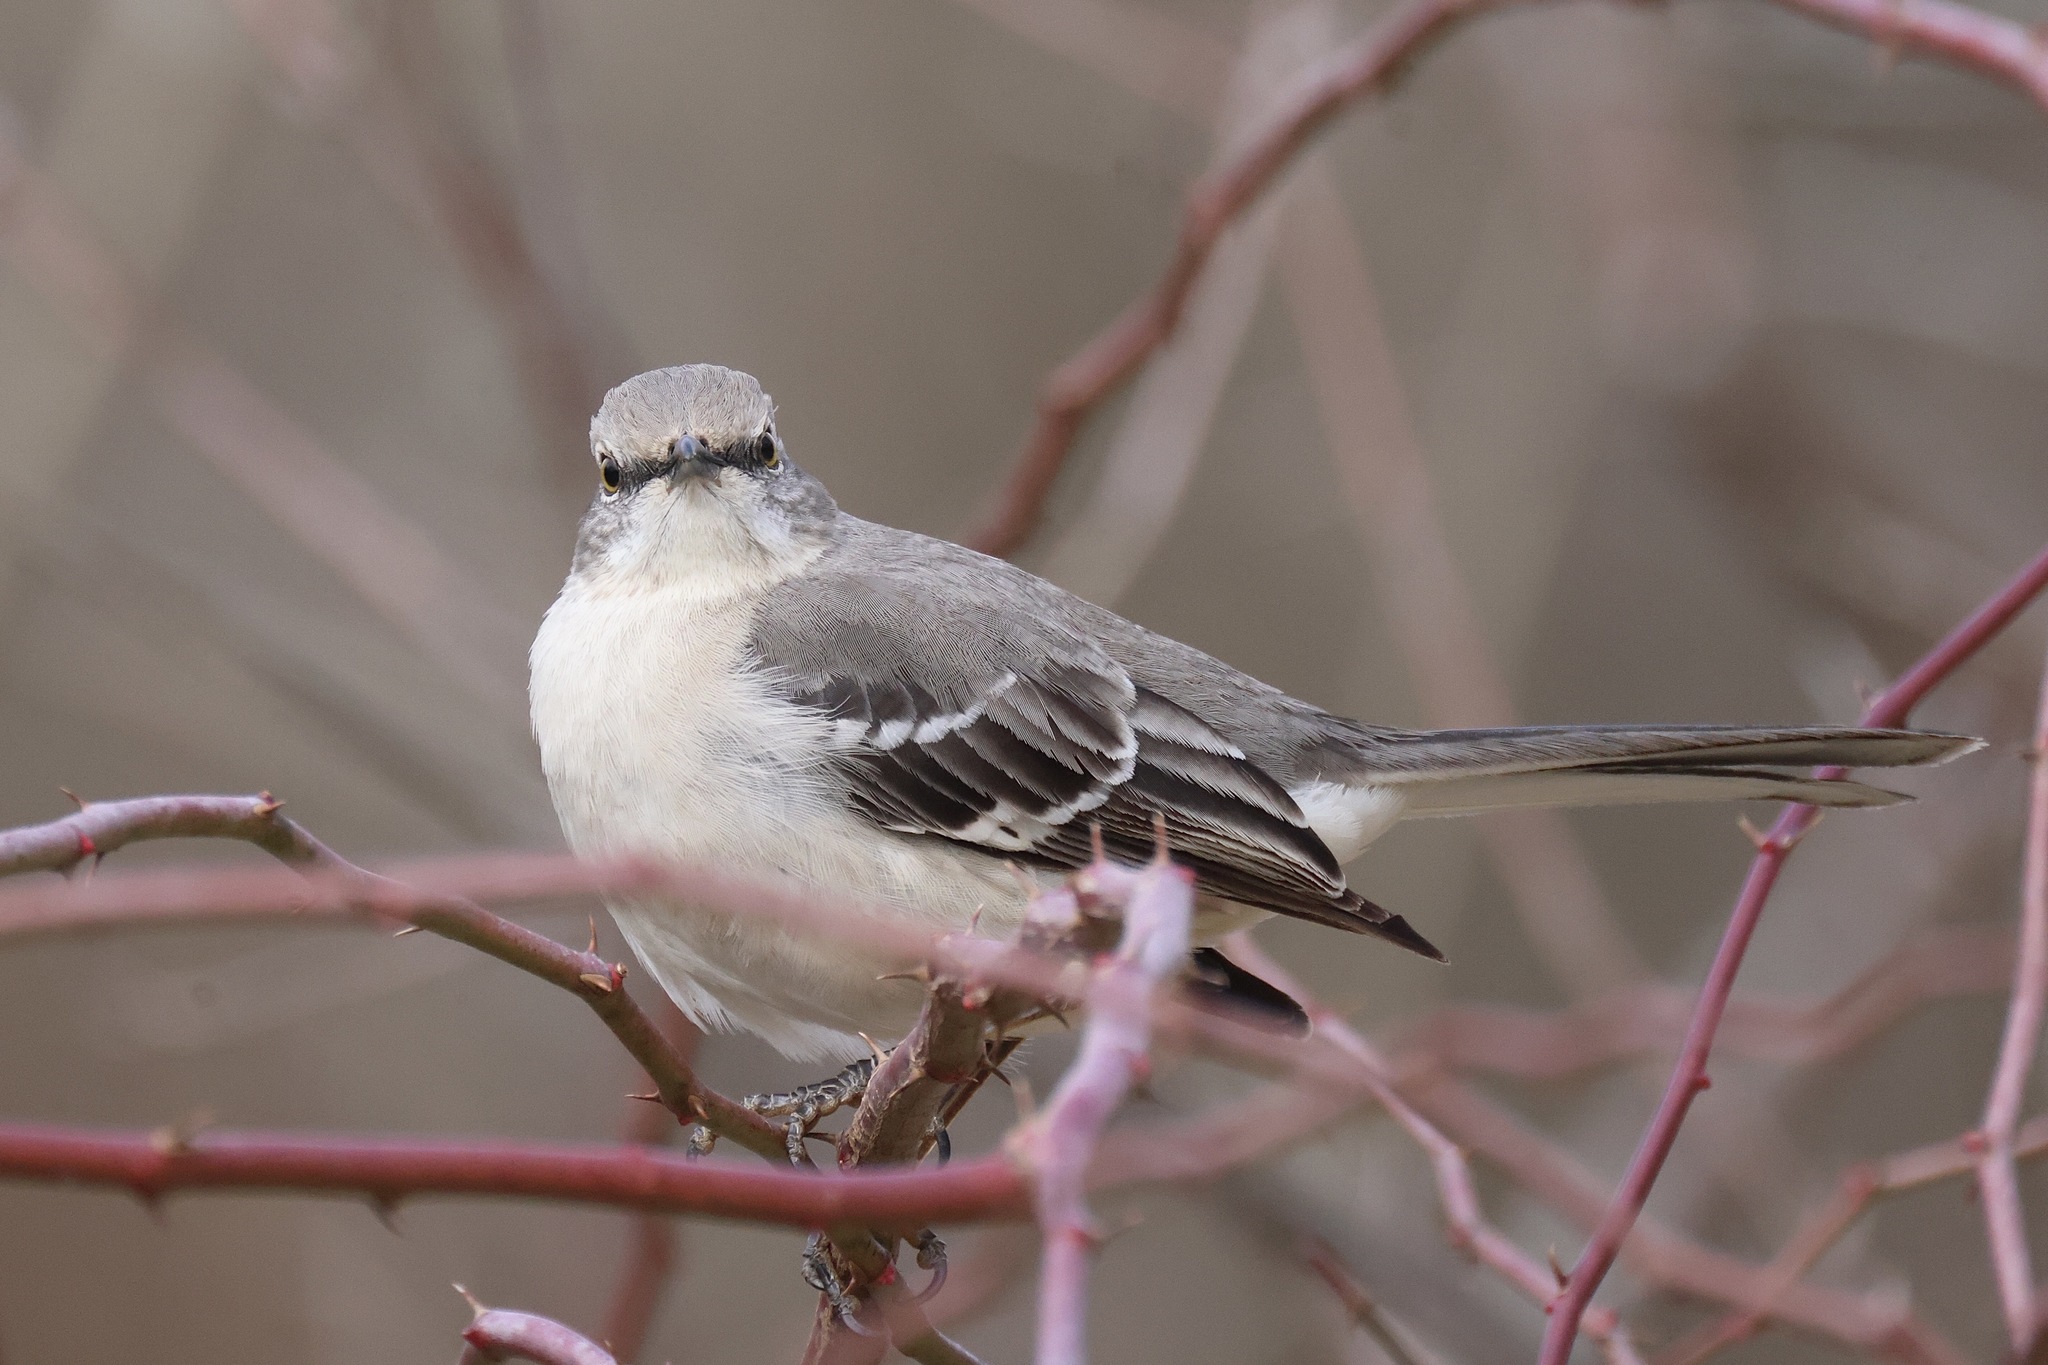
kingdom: Animalia
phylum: Chordata
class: Aves
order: Passeriformes
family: Mimidae
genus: Mimus
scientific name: Mimus polyglottos
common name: Northern mockingbird
